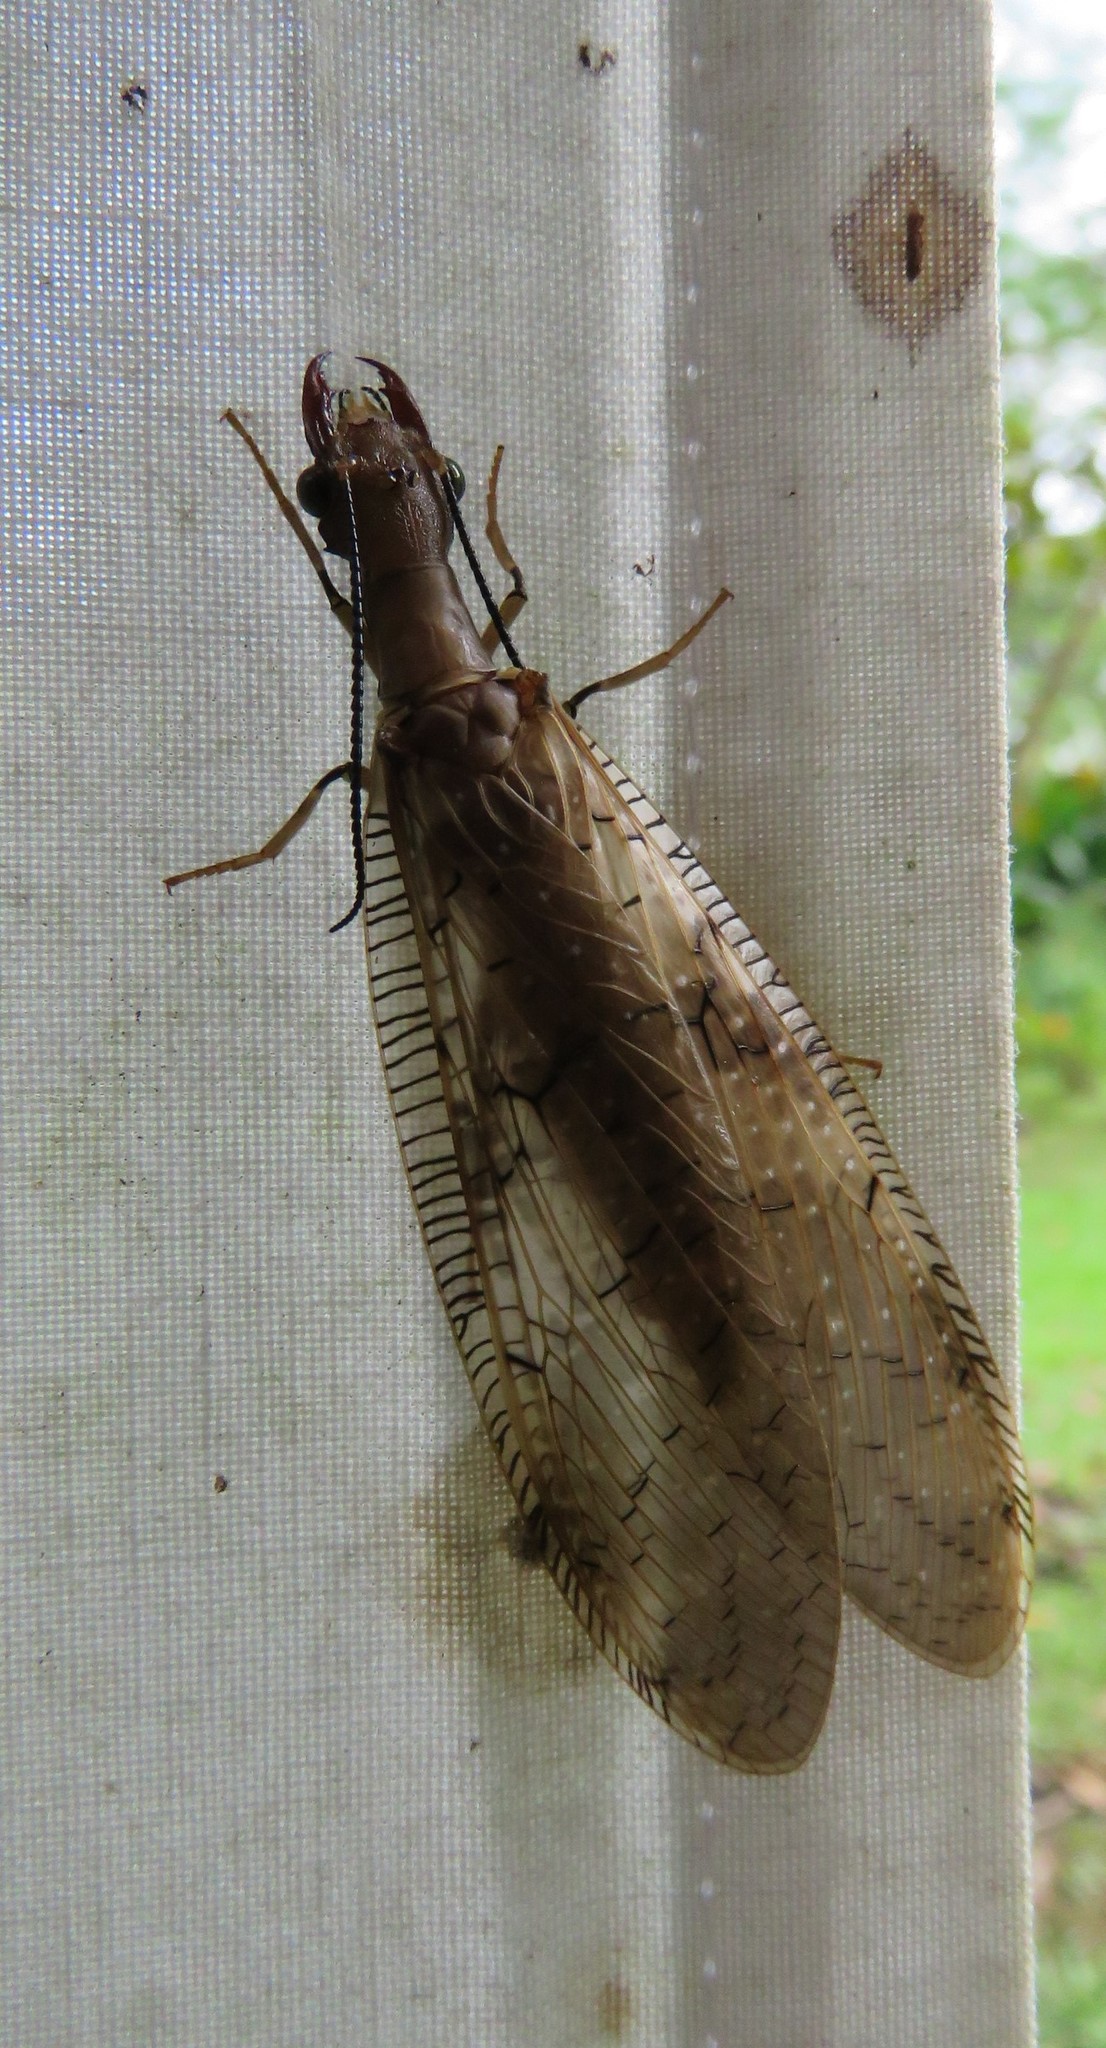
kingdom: Animalia
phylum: Arthropoda
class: Insecta
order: Megaloptera
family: Corydalidae
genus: Corydalus
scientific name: Corydalus flavicornis
